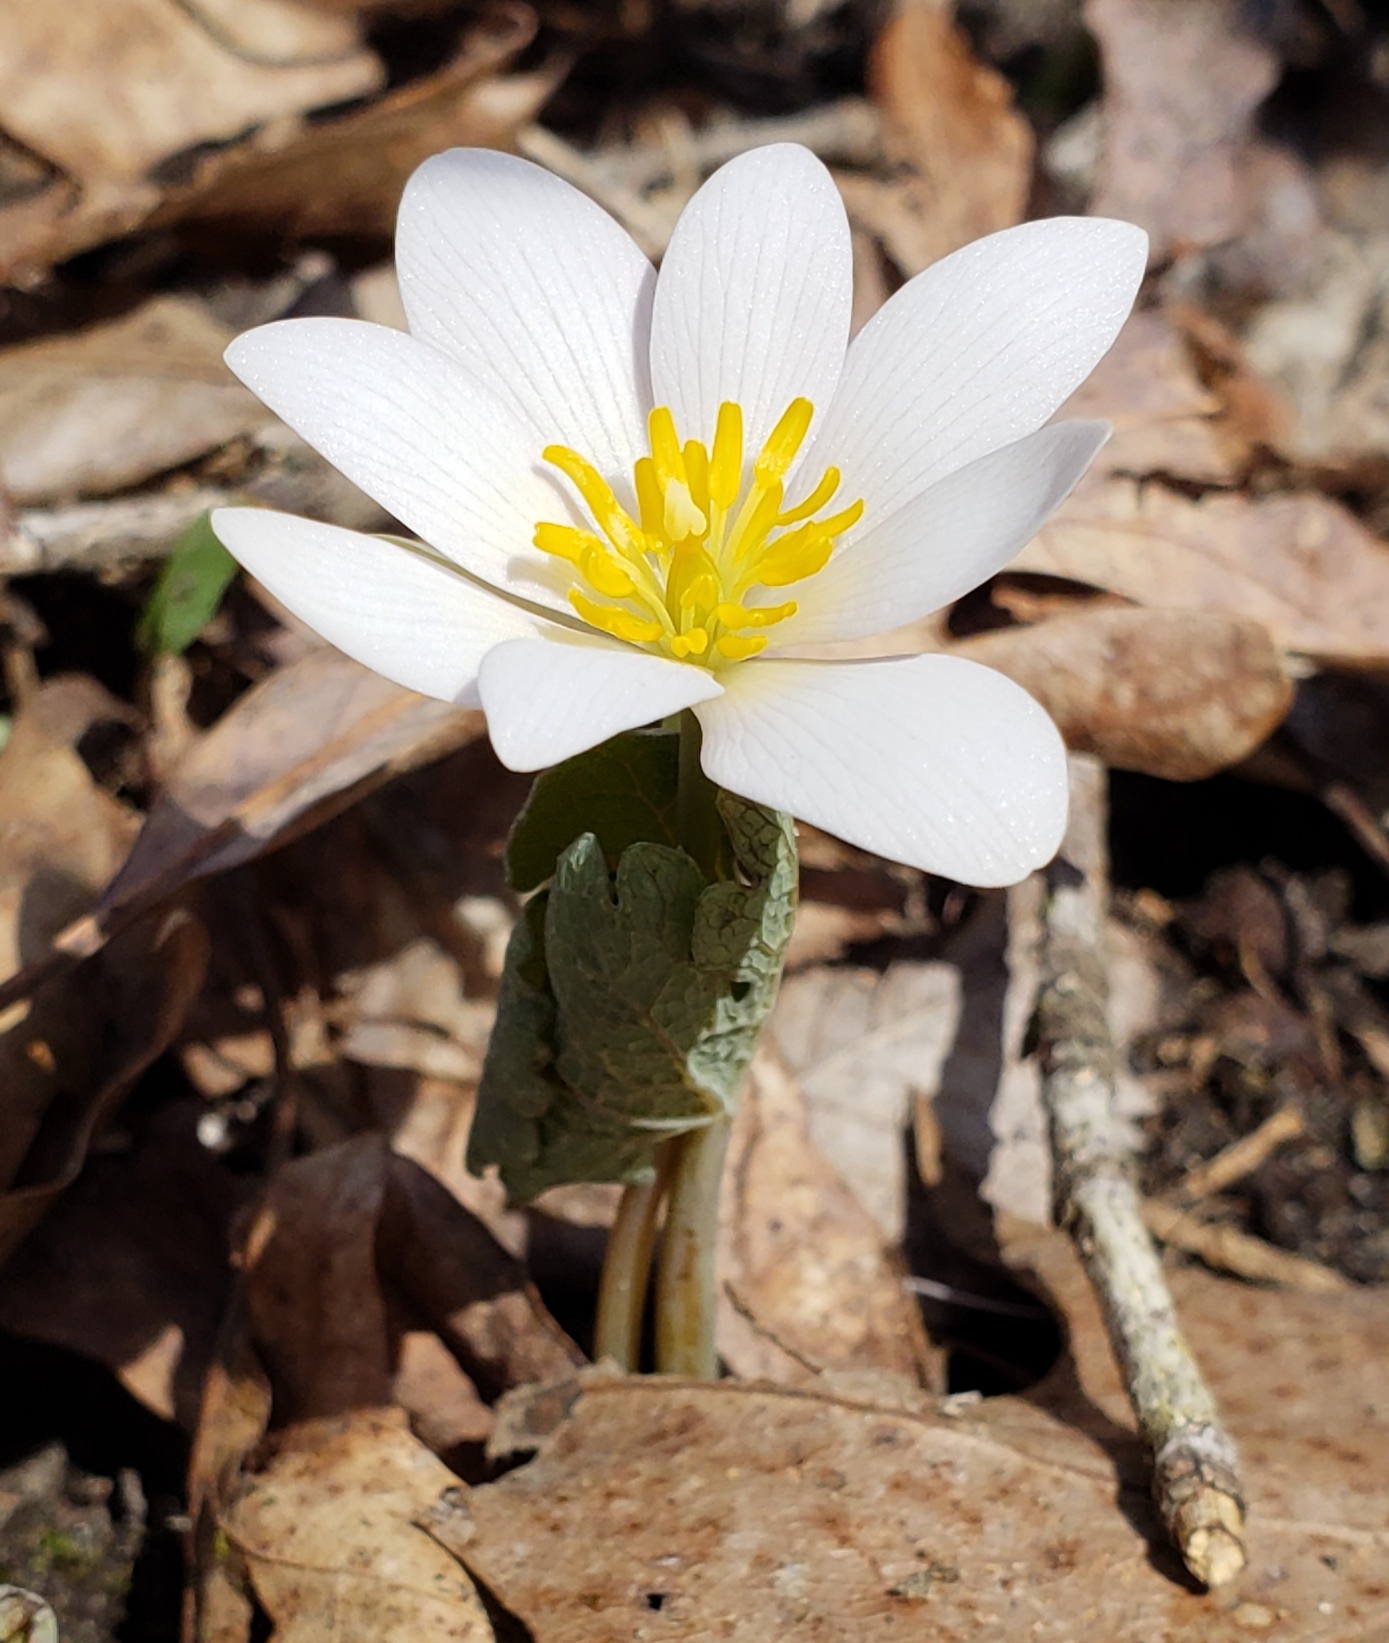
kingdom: Plantae
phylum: Tracheophyta
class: Magnoliopsida
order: Ranunculales
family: Papaveraceae
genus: Sanguinaria
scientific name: Sanguinaria canadensis
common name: Bloodroot
